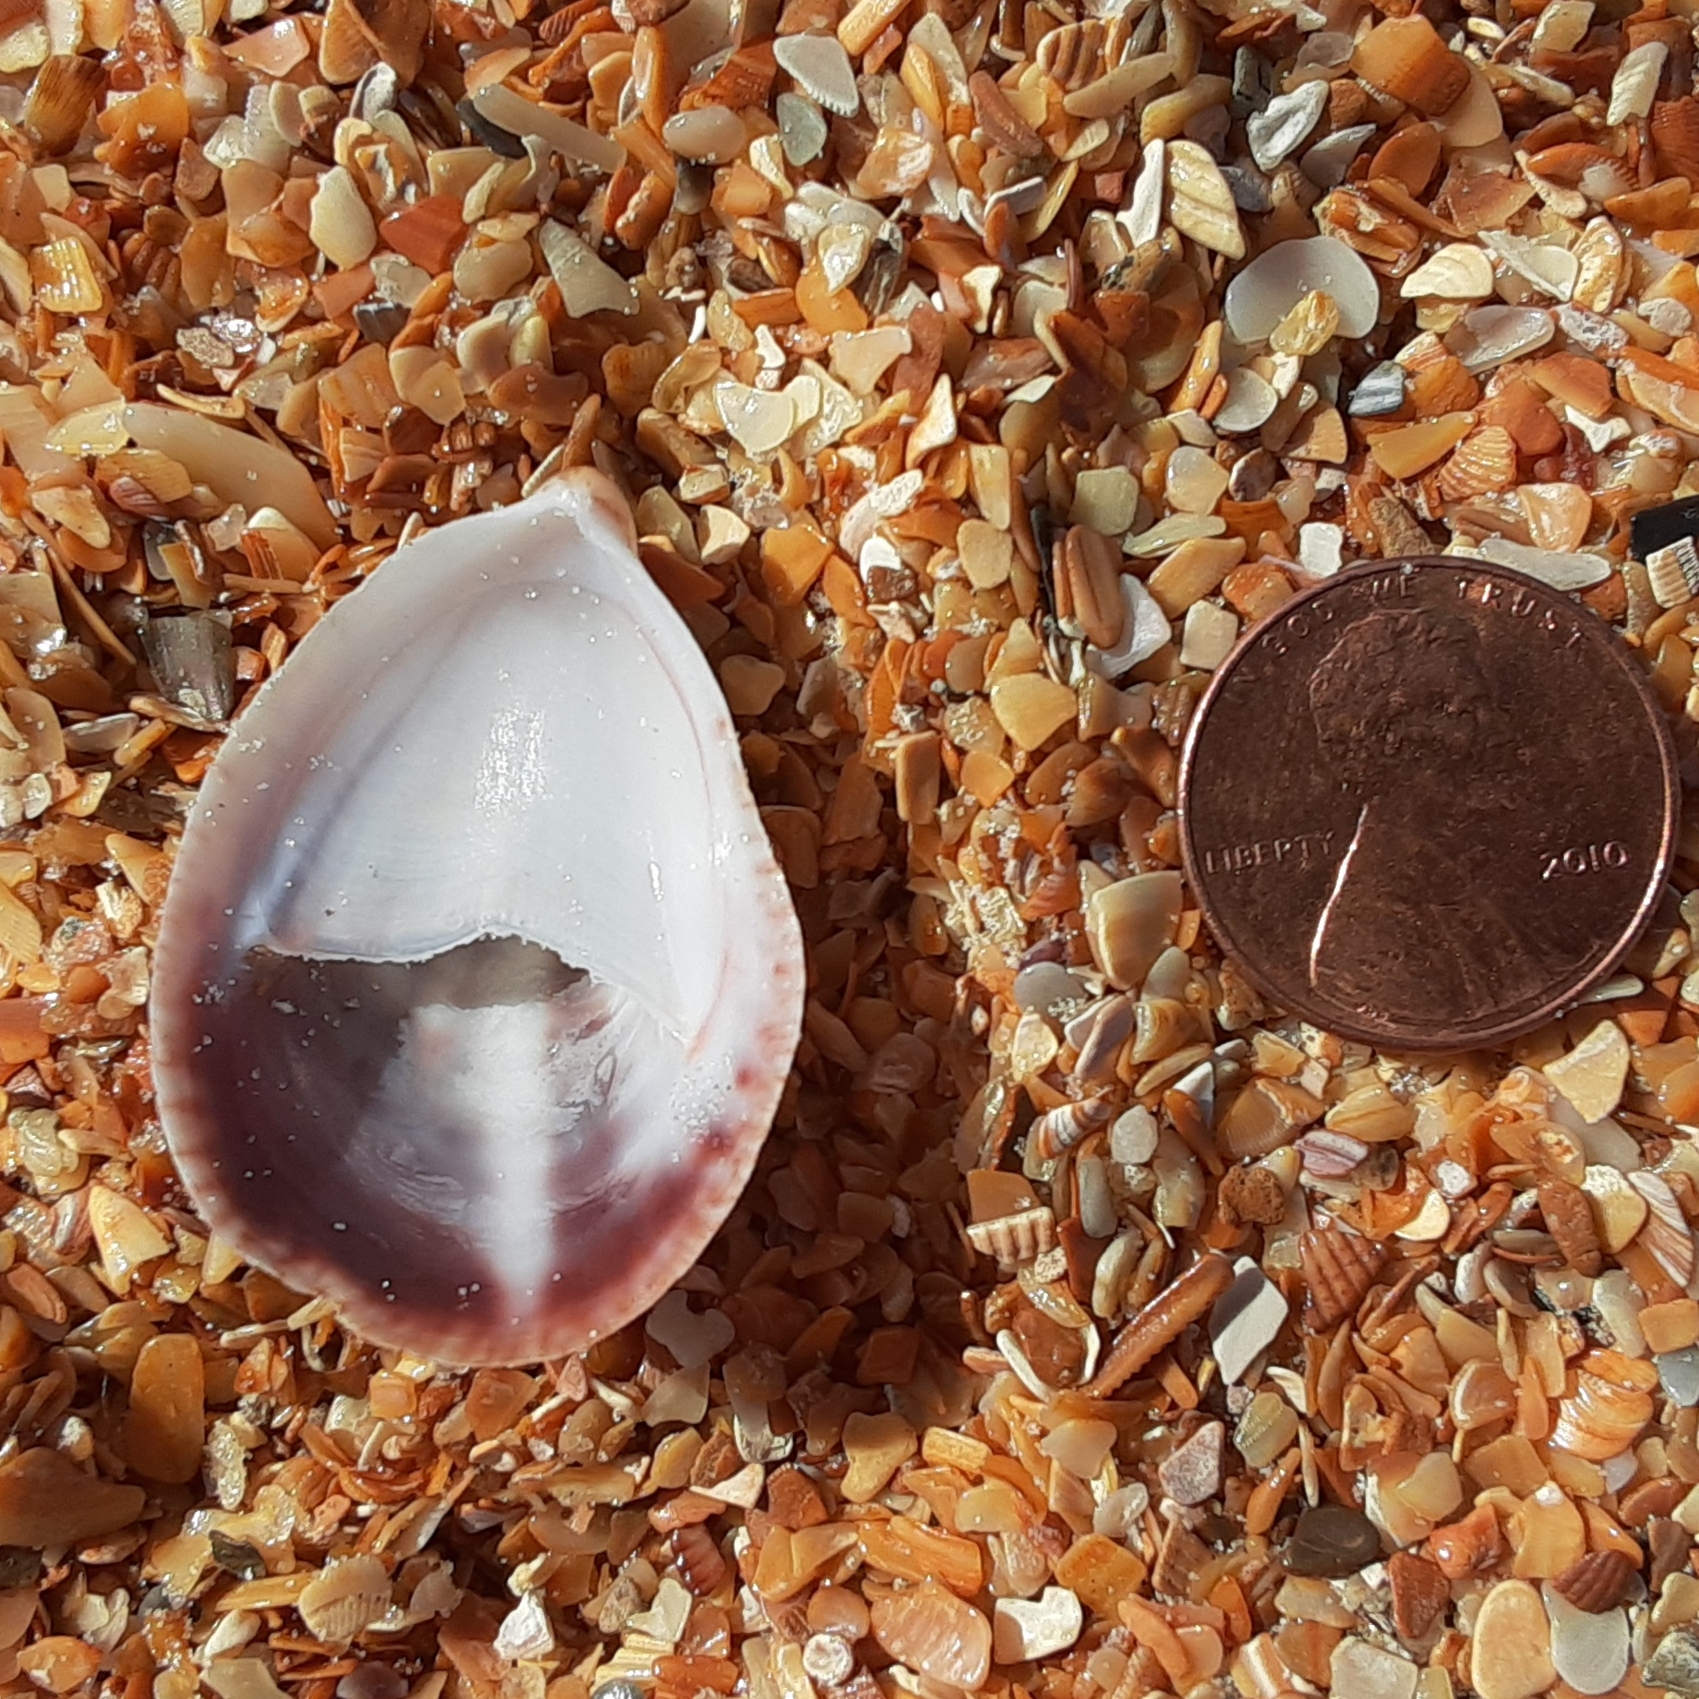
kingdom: Animalia
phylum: Mollusca
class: Gastropoda
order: Littorinimorpha
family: Calyptraeidae
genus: Crepidula
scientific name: Crepidula fornicata
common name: Slipper limpet
